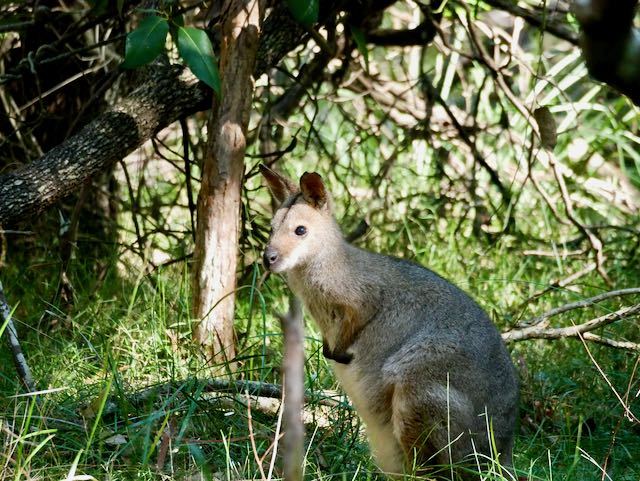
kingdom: Animalia
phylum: Chordata
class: Mammalia
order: Diprotodontia
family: Macropodidae
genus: Notamacropus
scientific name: Notamacropus rufogriseus
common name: Red-necked wallaby
